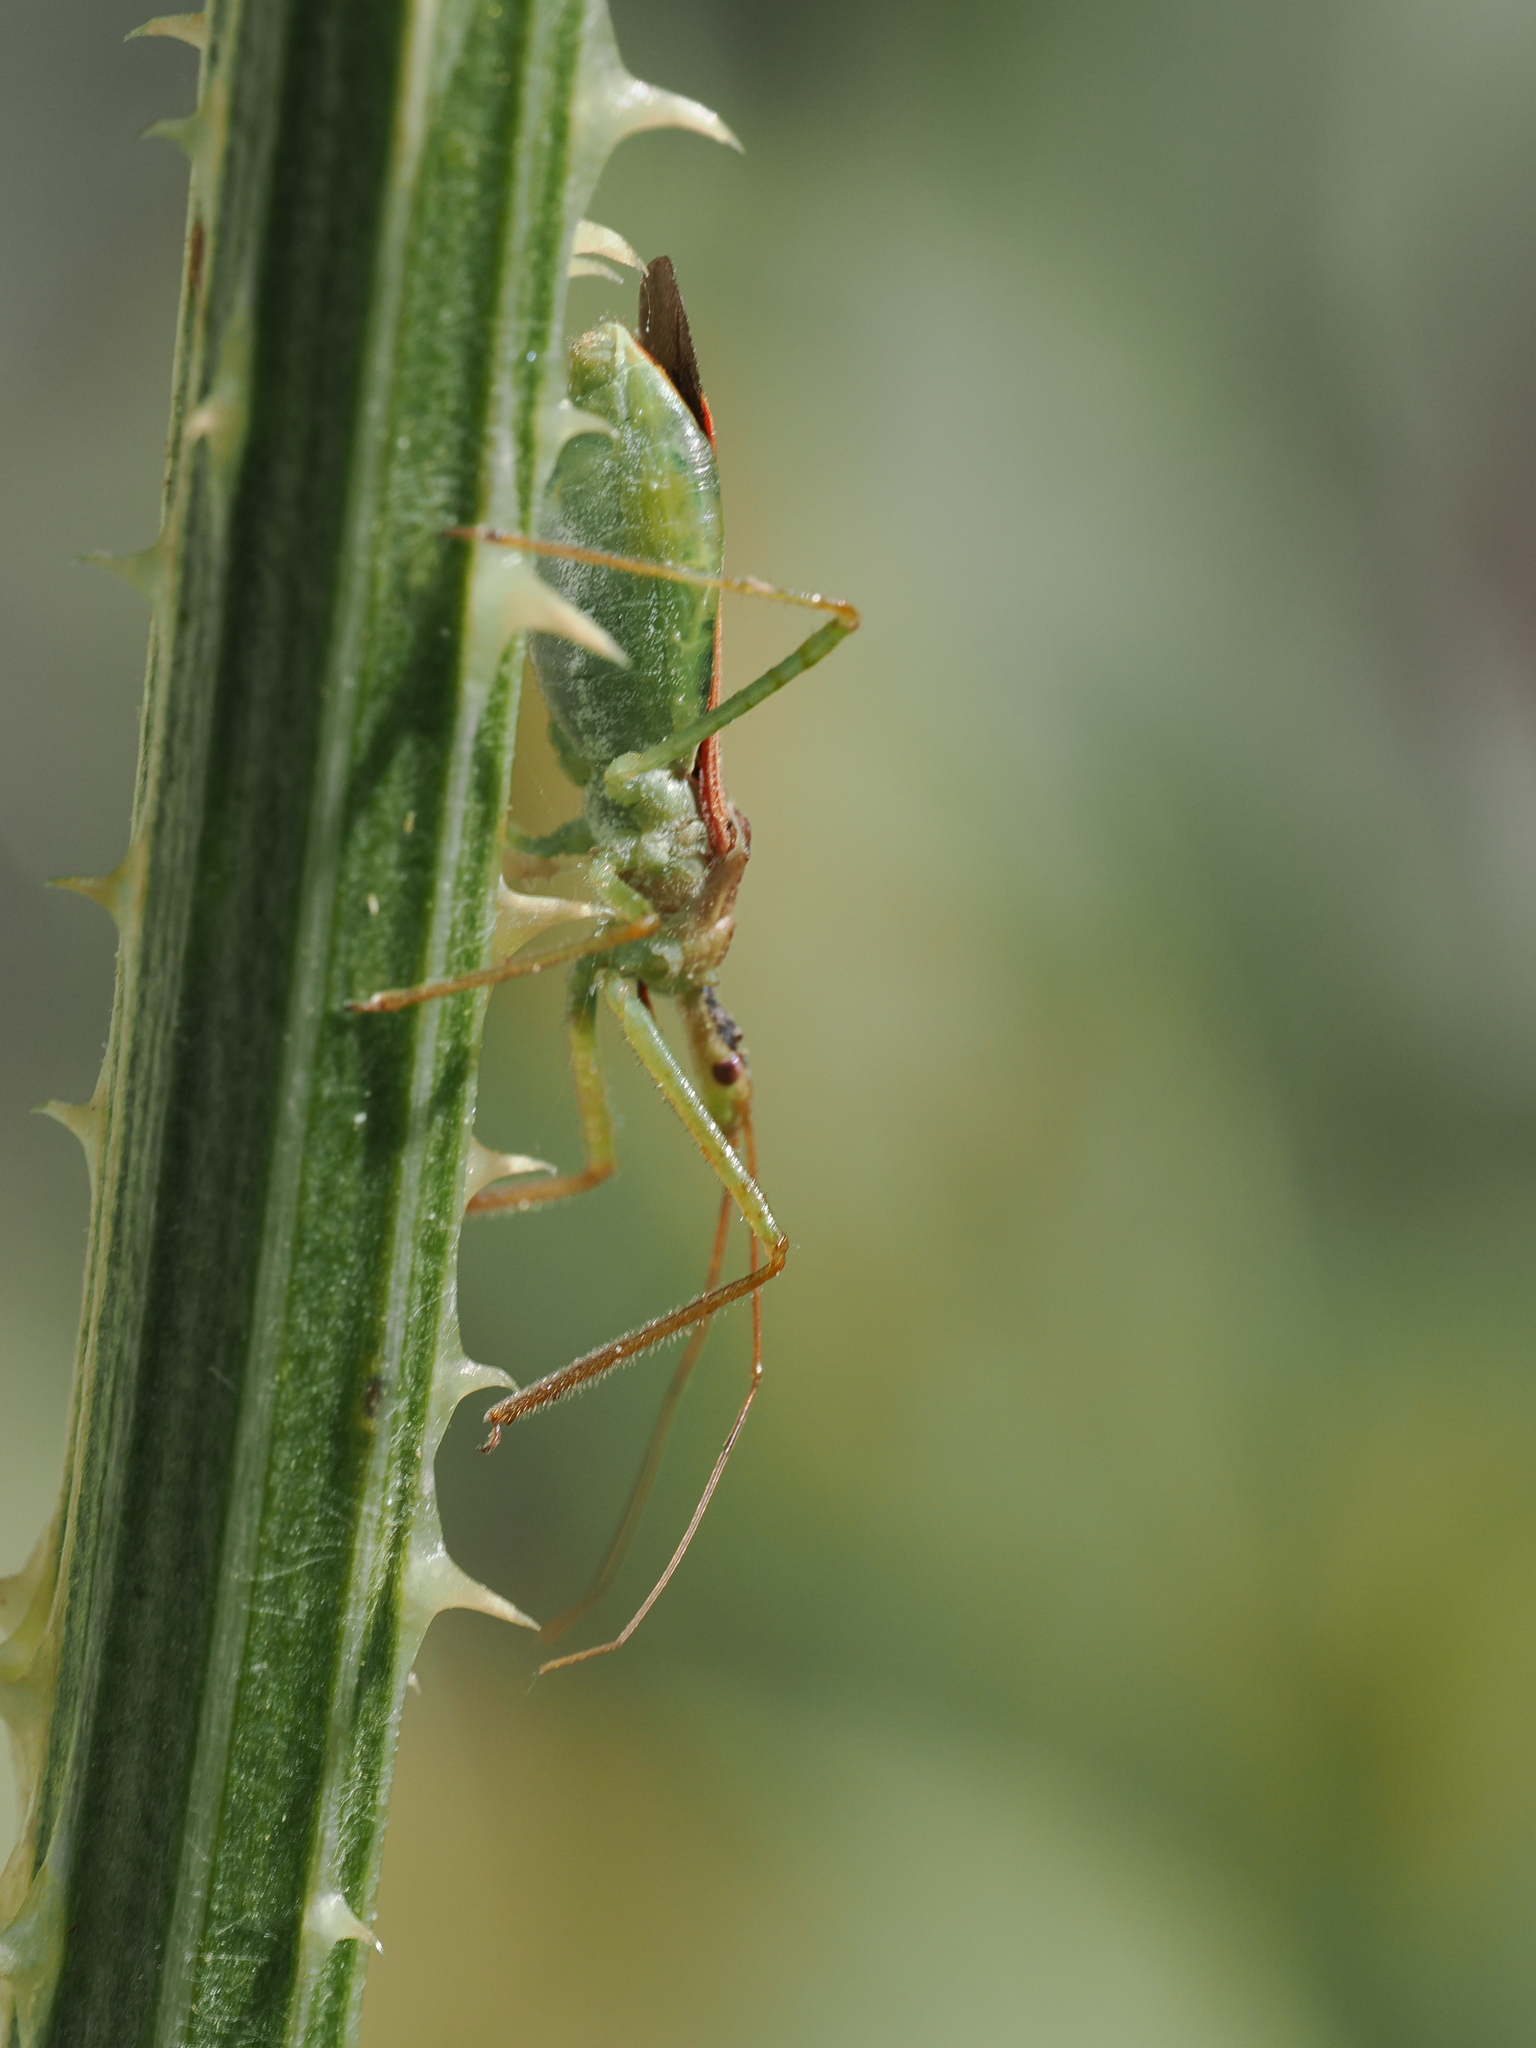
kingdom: Animalia
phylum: Arthropoda
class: Insecta
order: Hemiptera
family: Reduviidae
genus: Zelus
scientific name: Zelus renardii
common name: Assassin bug
